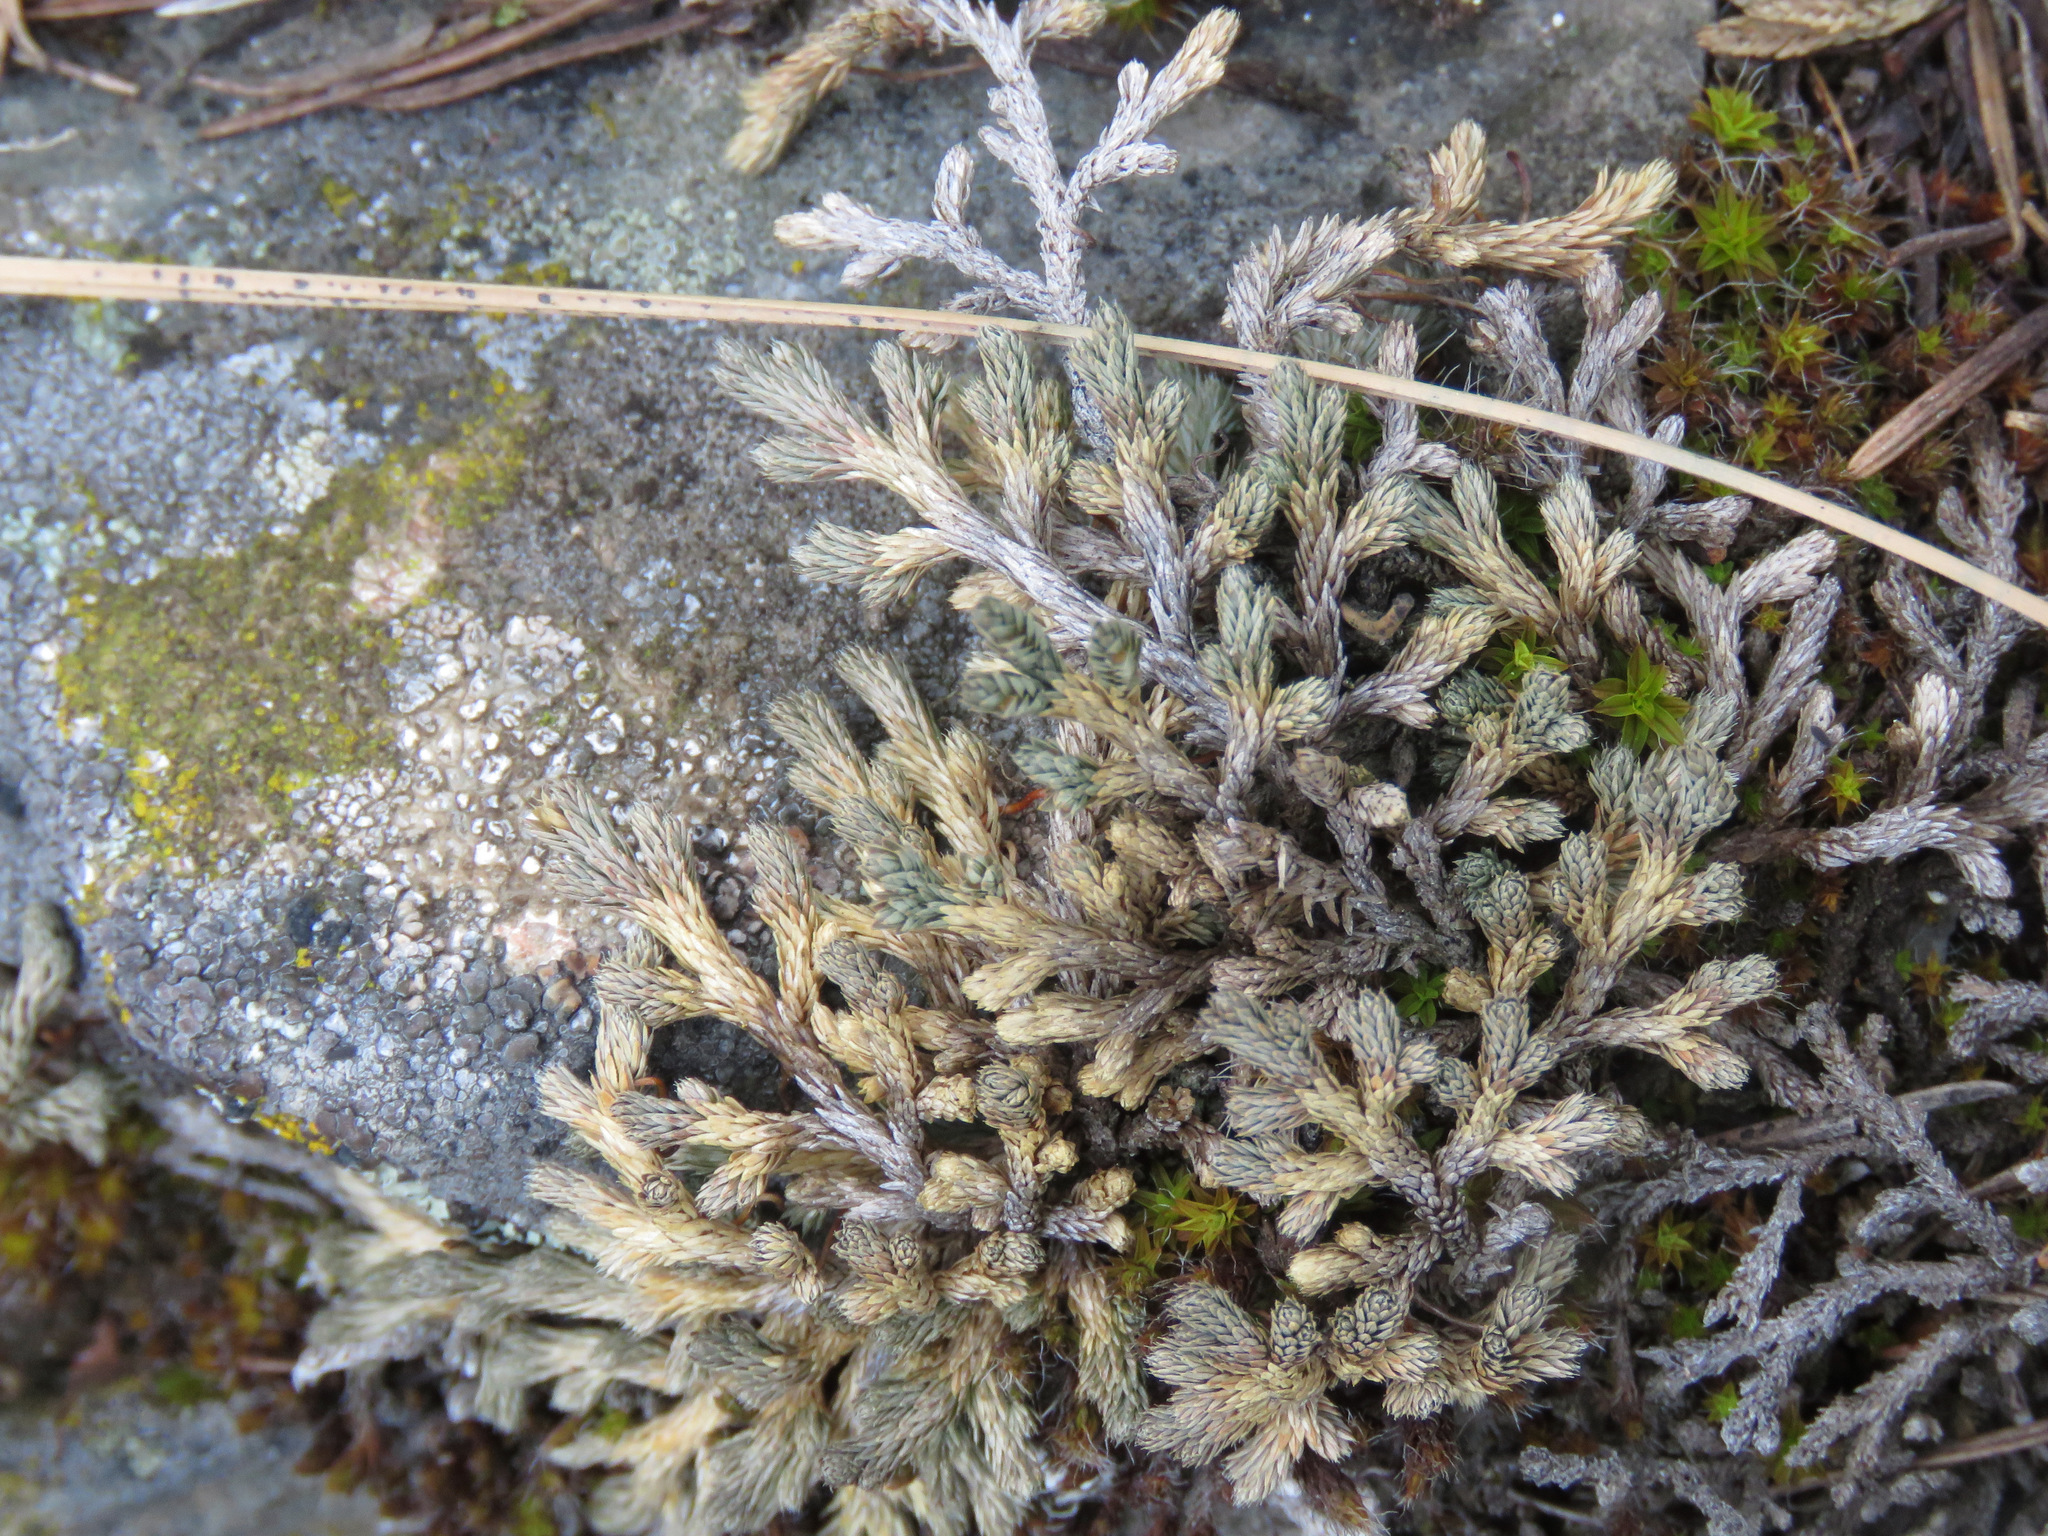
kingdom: Plantae
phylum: Tracheophyta
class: Lycopodiopsida
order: Selaginellales
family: Selaginellaceae
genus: Selaginella
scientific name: Selaginella wallacei
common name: Wallace's selaginella
